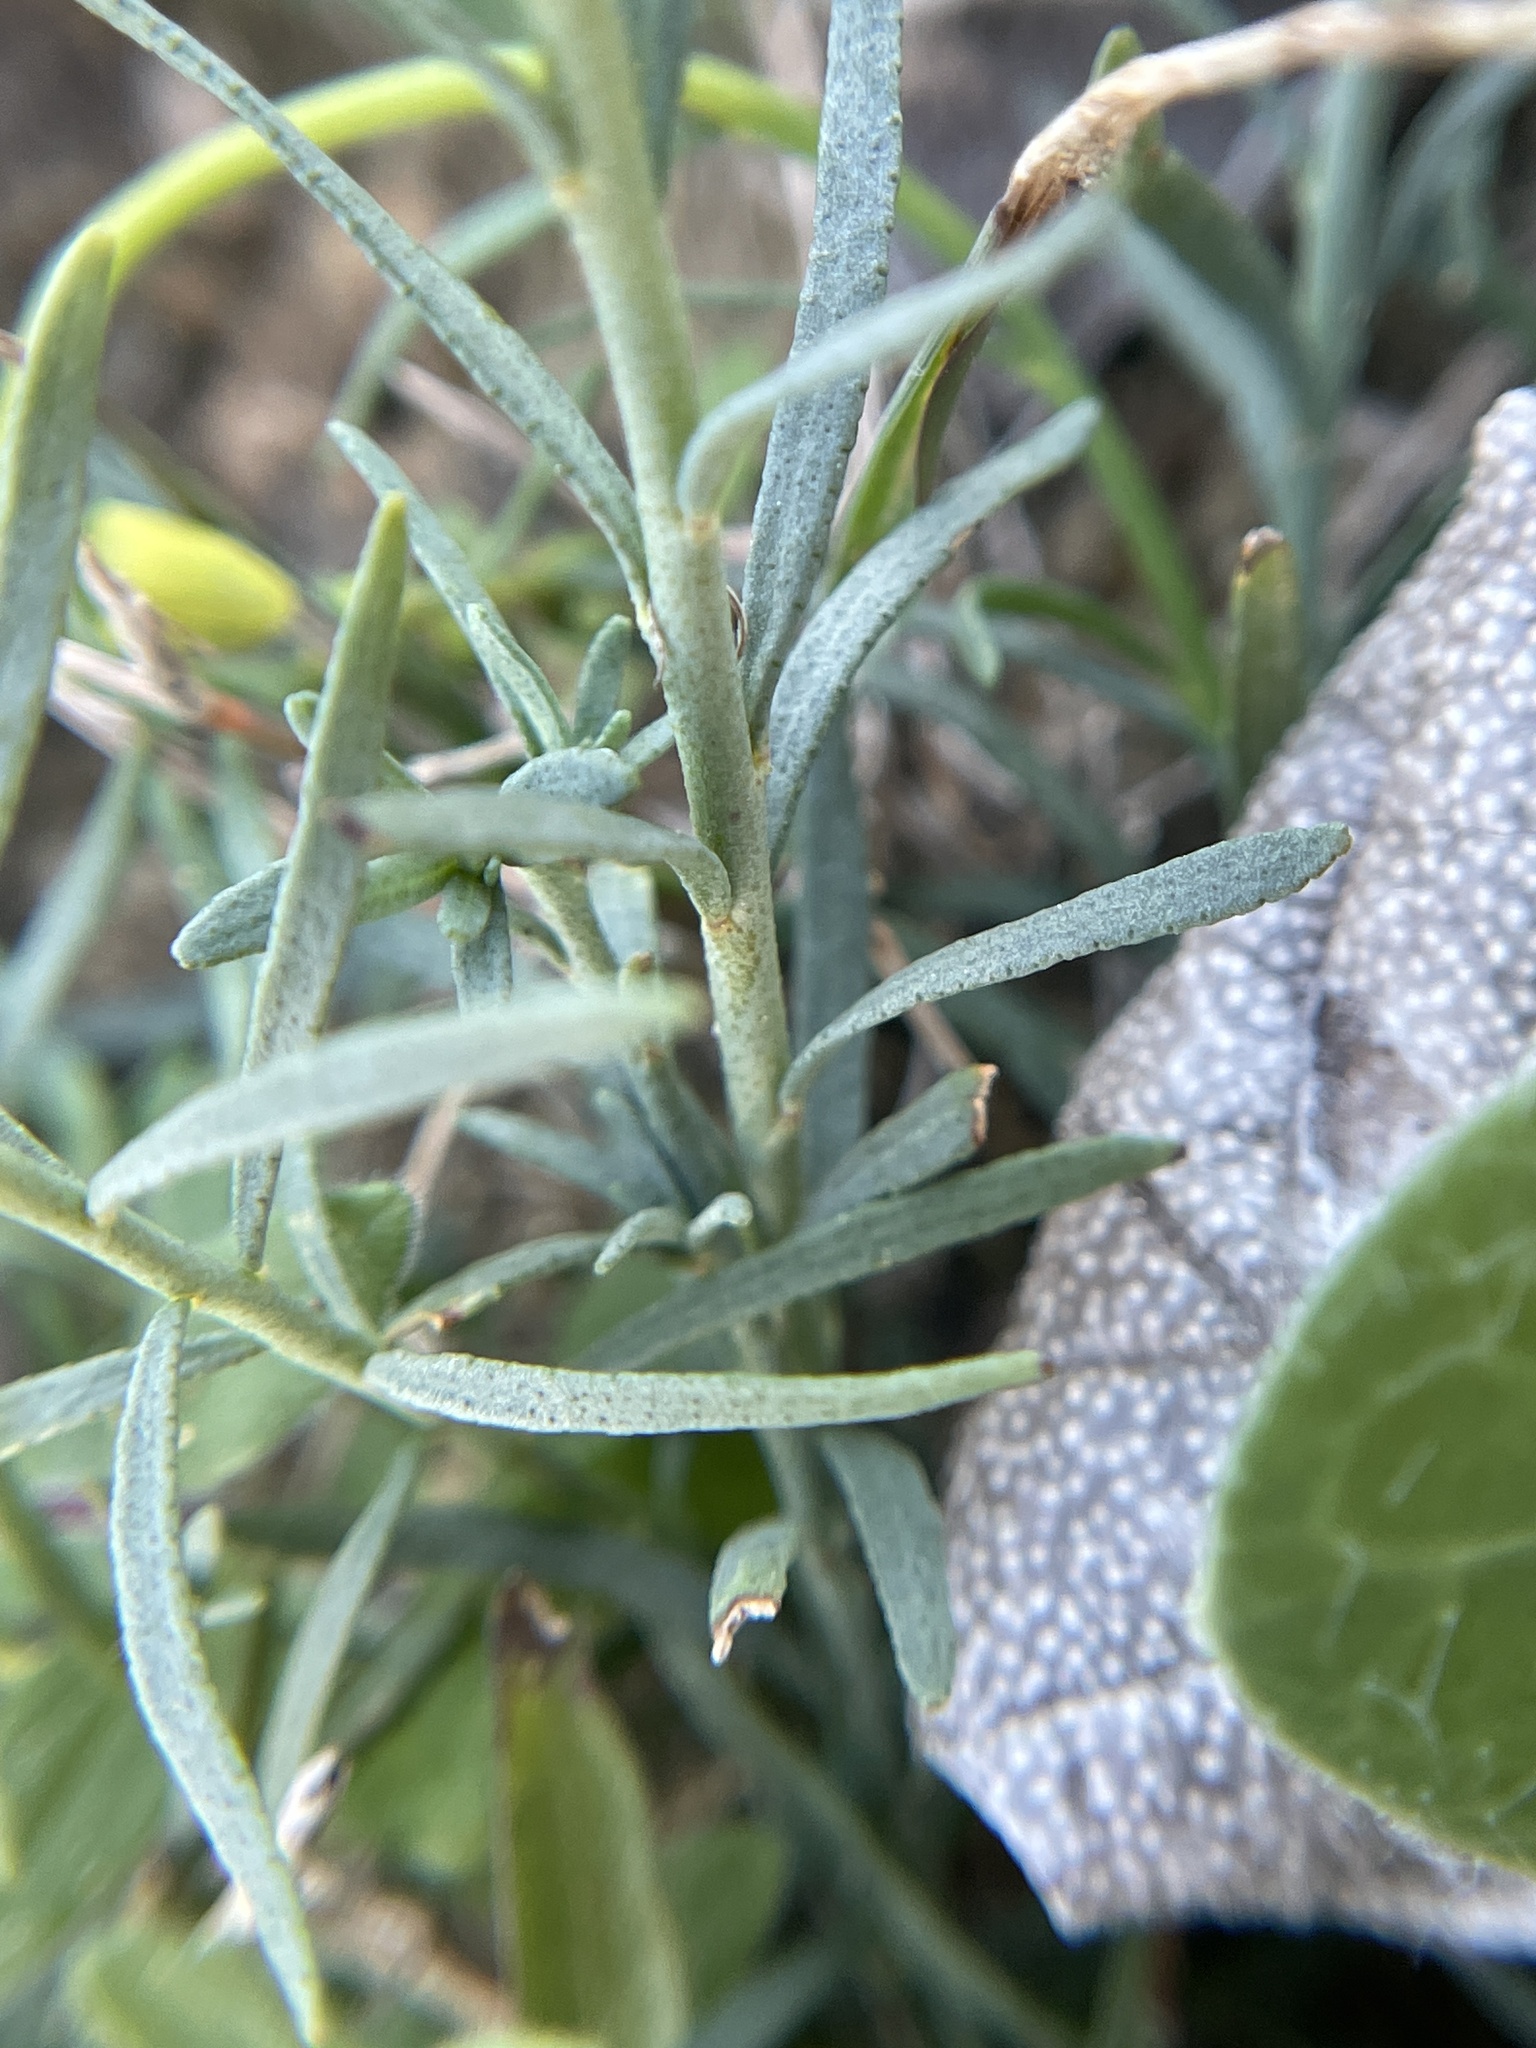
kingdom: Plantae
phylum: Tracheophyta
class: Magnoliopsida
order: Sapindales
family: Rutaceae
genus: Thamnosma
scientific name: Thamnosma texana
